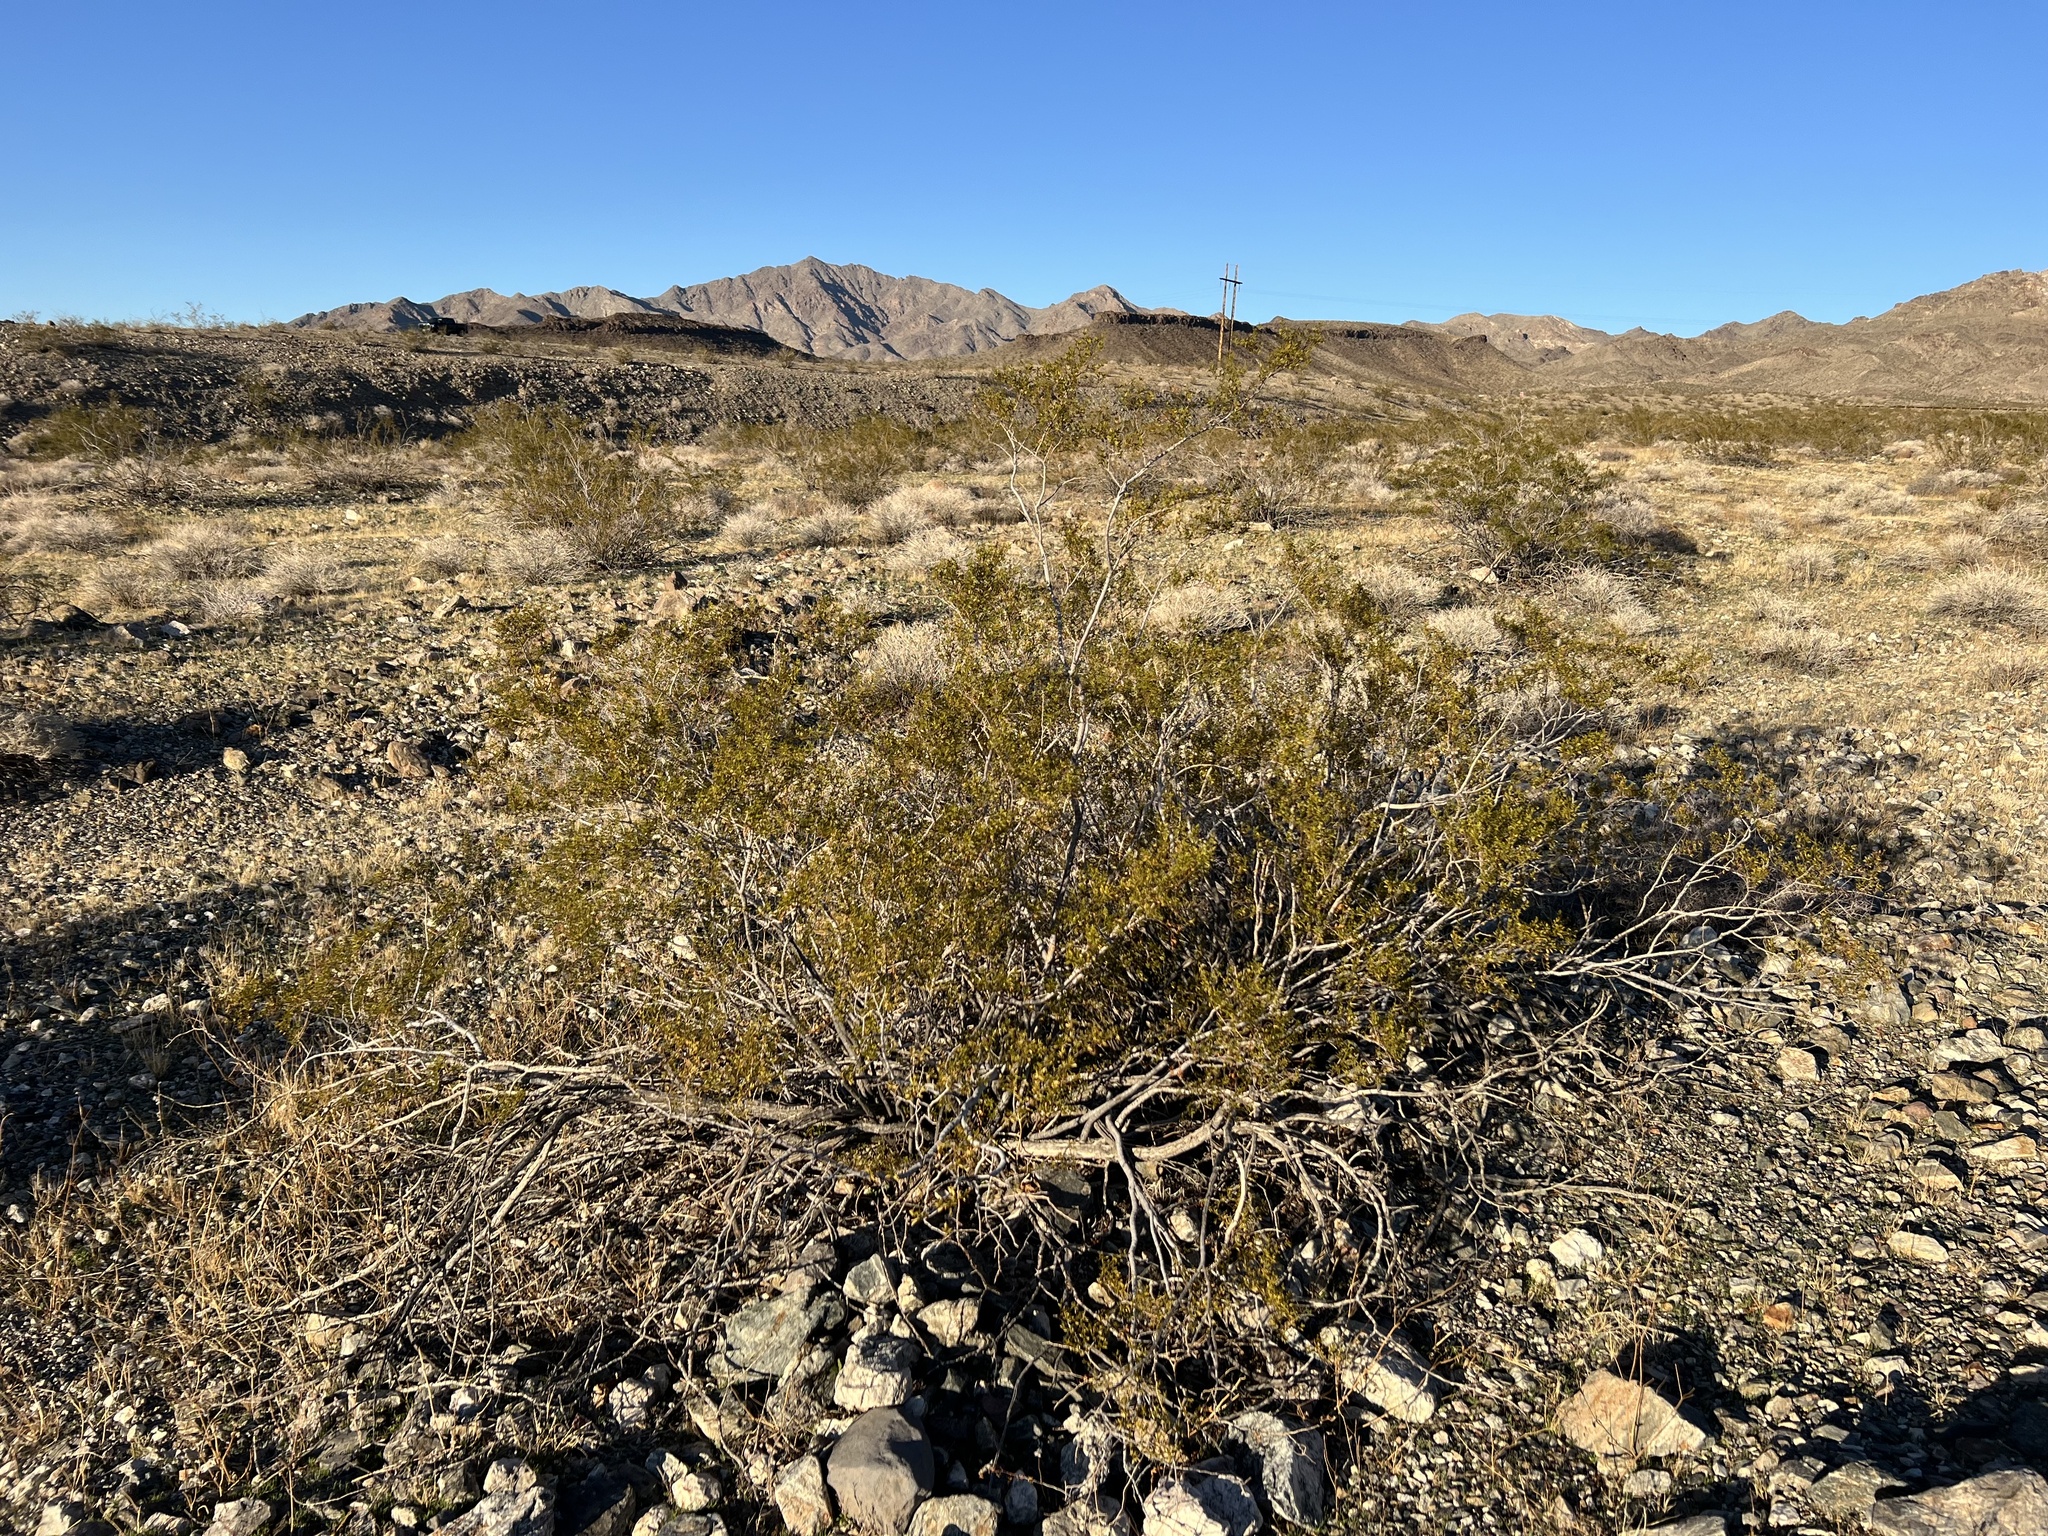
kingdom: Plantae
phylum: Tracheophyta
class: Magnoliopsida
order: Zygophyllales
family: Zygophyllaceae
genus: Larrea
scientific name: Larrea tridentata
